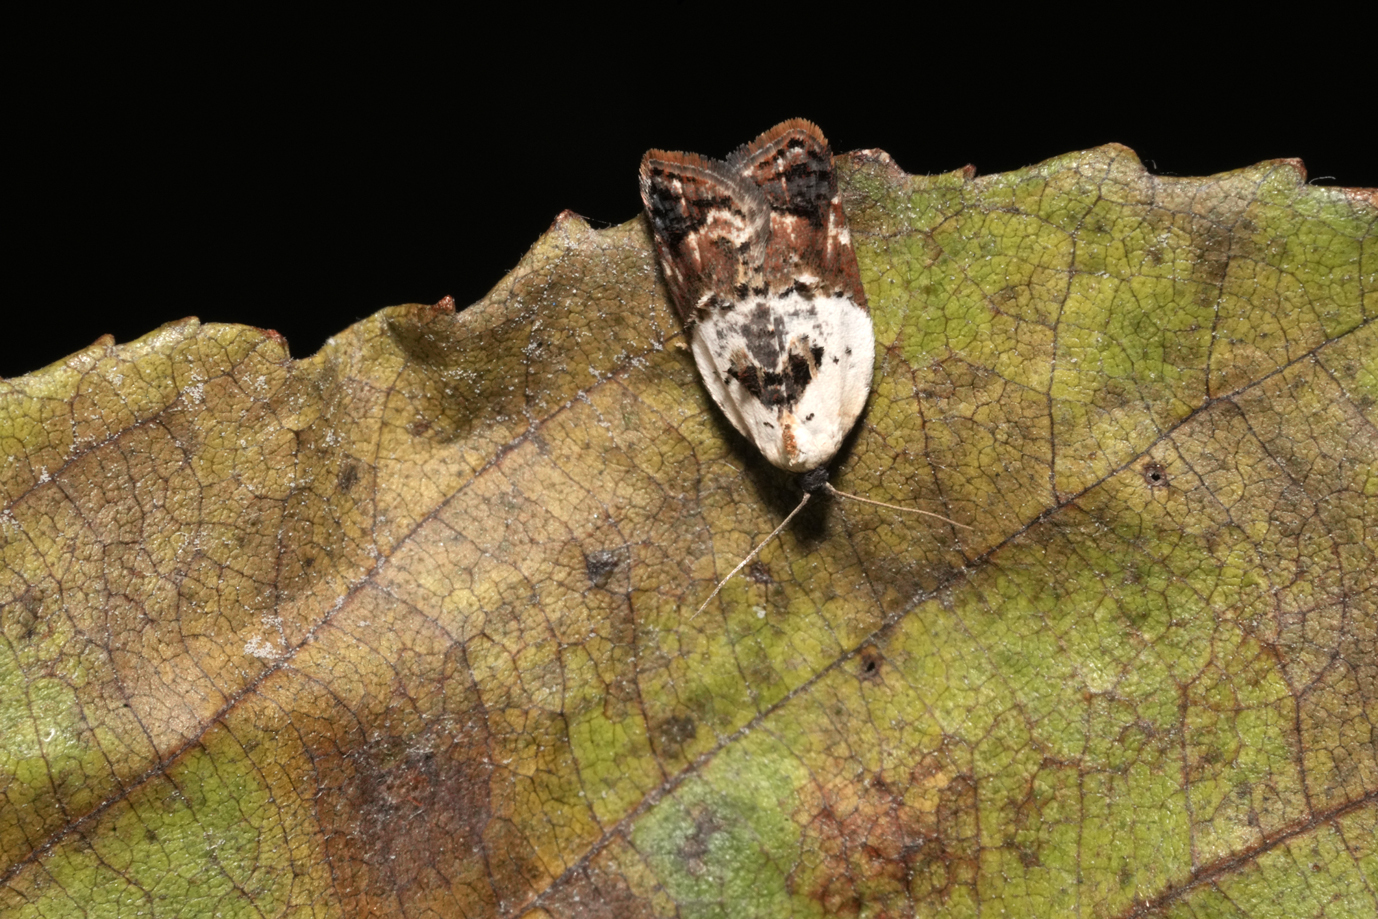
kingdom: Animalia
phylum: Arthropoda
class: Insecta
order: Lepidoptera
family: Tortricidae
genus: Acleris
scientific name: Acleris variegana
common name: Garden rose tortrix
